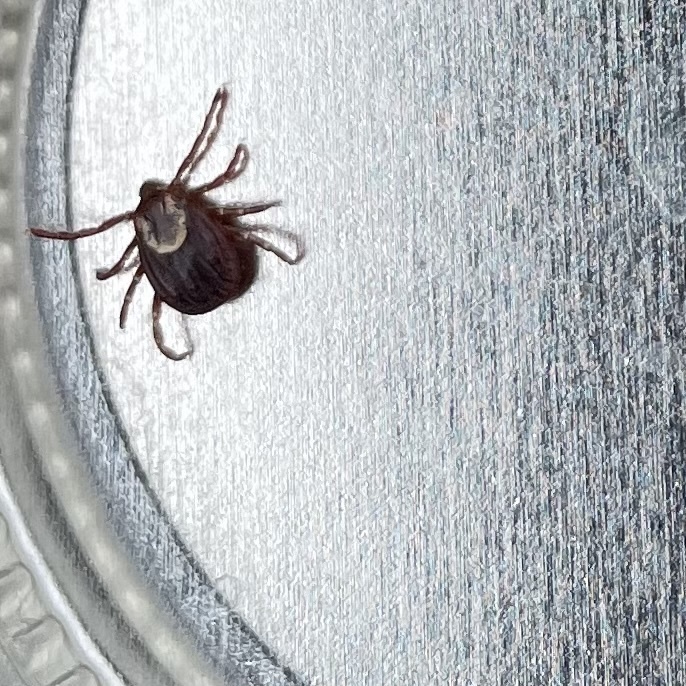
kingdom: Animalia
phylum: Arthropoda
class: Arachnida
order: Ixodida
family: Ixodidae
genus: Dermacentor
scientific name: Dermacentor variabilis
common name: American dog tick
